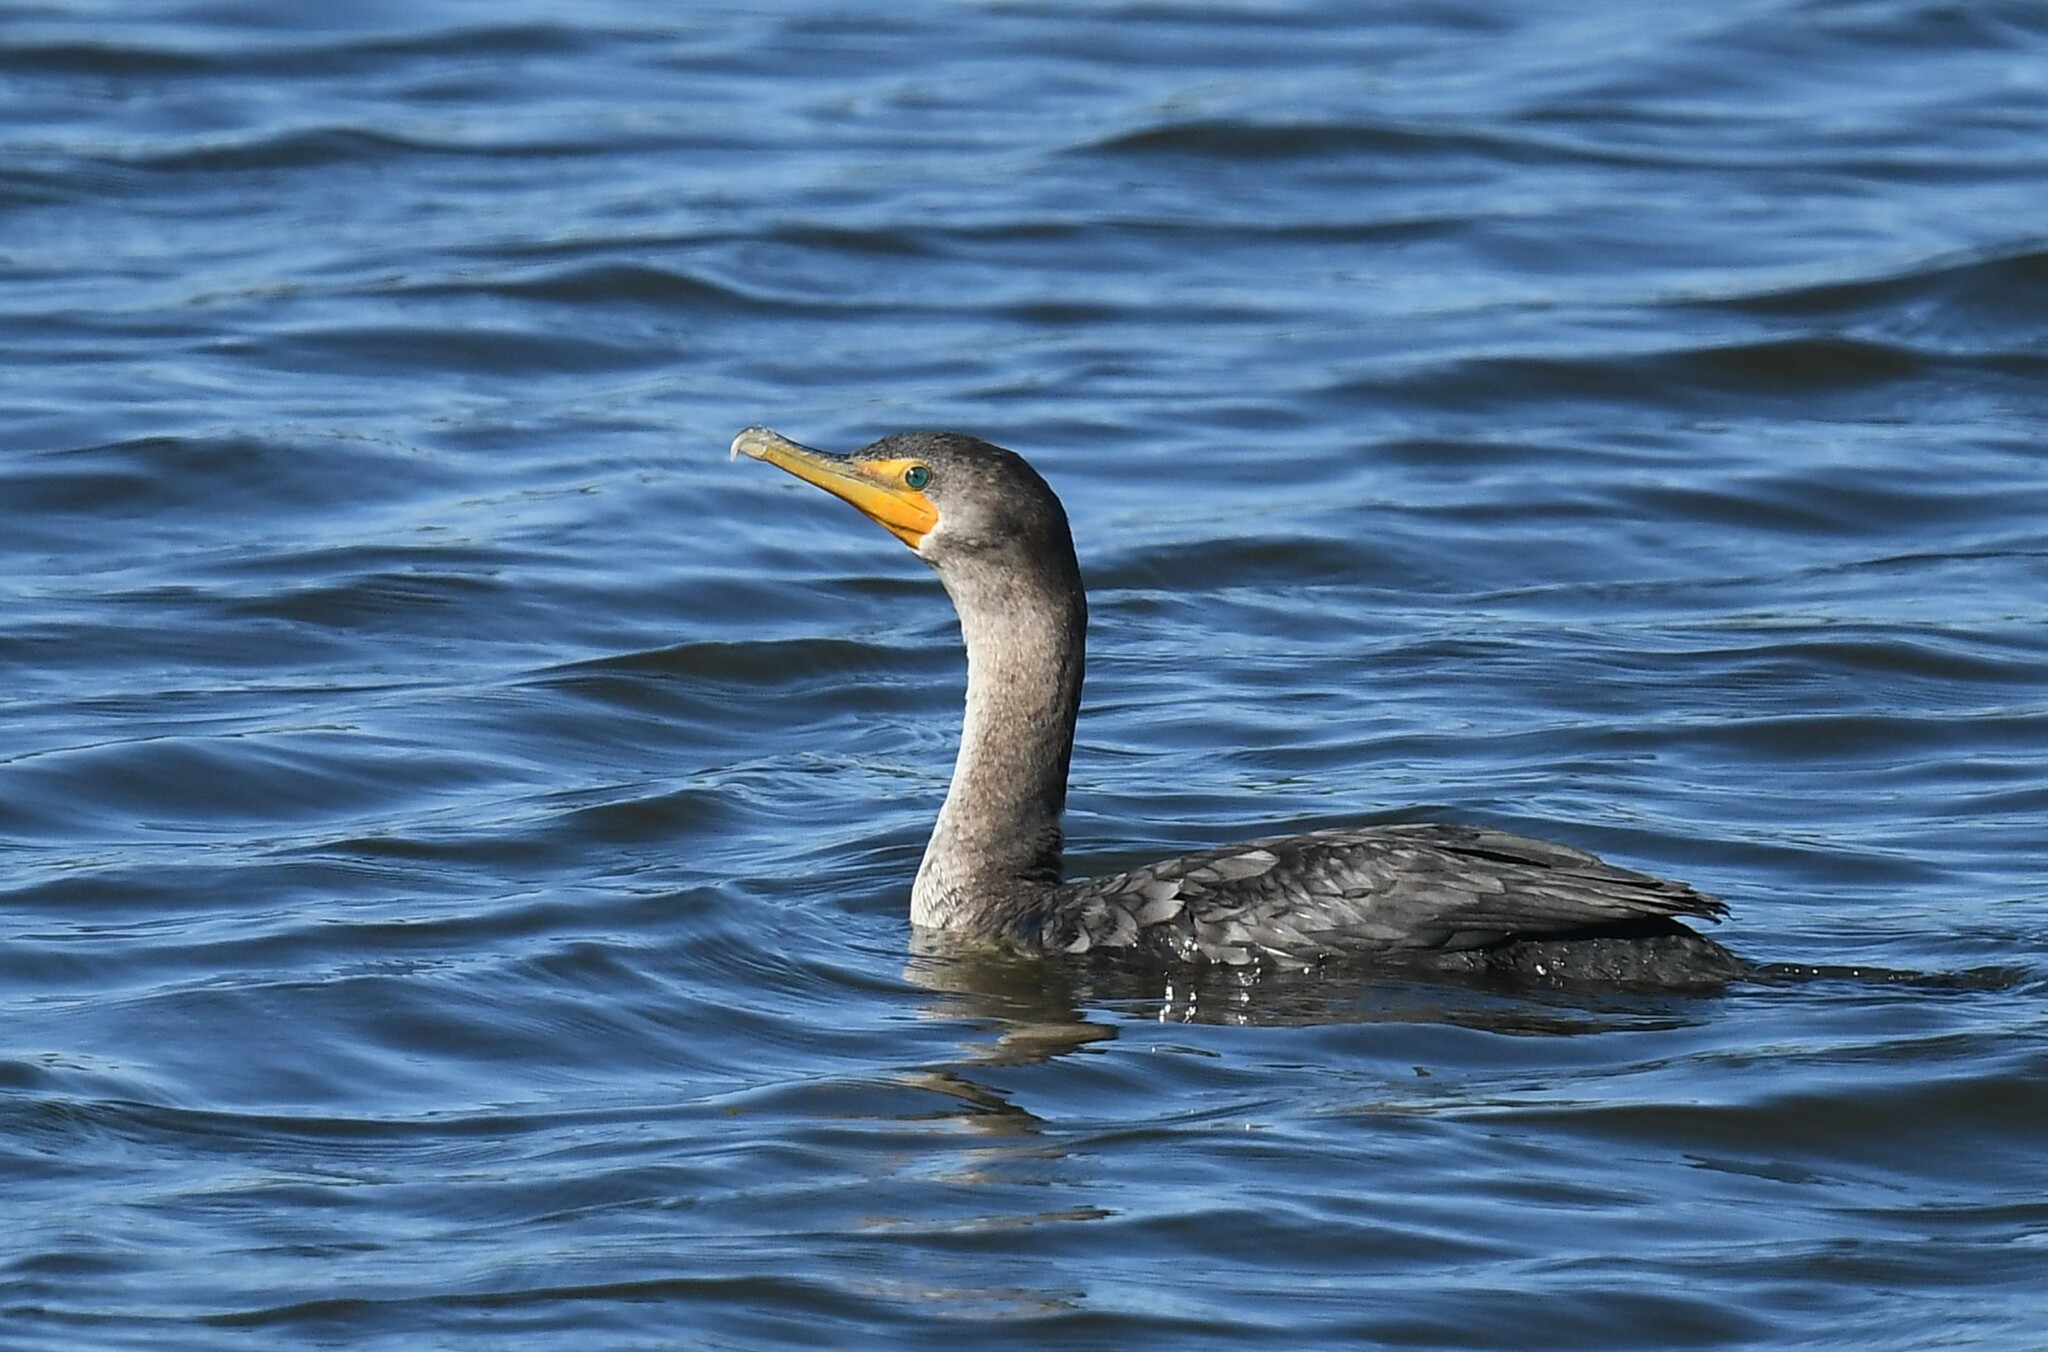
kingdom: Animalia
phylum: Chordata
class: Aves
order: Suliformes
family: Phalacrocoracidae
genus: Phalacrocorax
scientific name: Phalacrocorax auritus
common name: Double-crested cormorant
